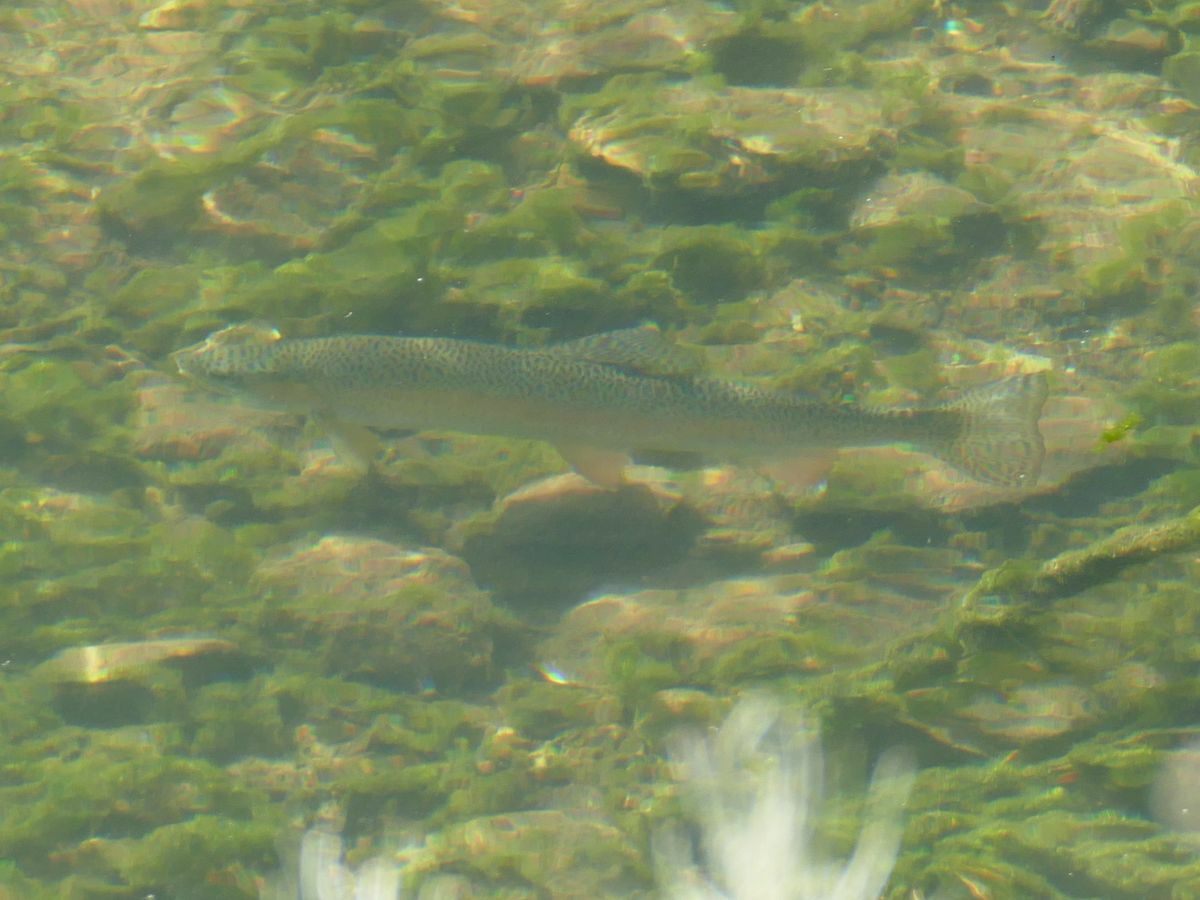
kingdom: Animalia
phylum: Chordata
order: Salmoniformes
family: Salmonidae
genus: Oncorhynchus
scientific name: Oncorhynchus mykiss
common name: Rainbow trout
